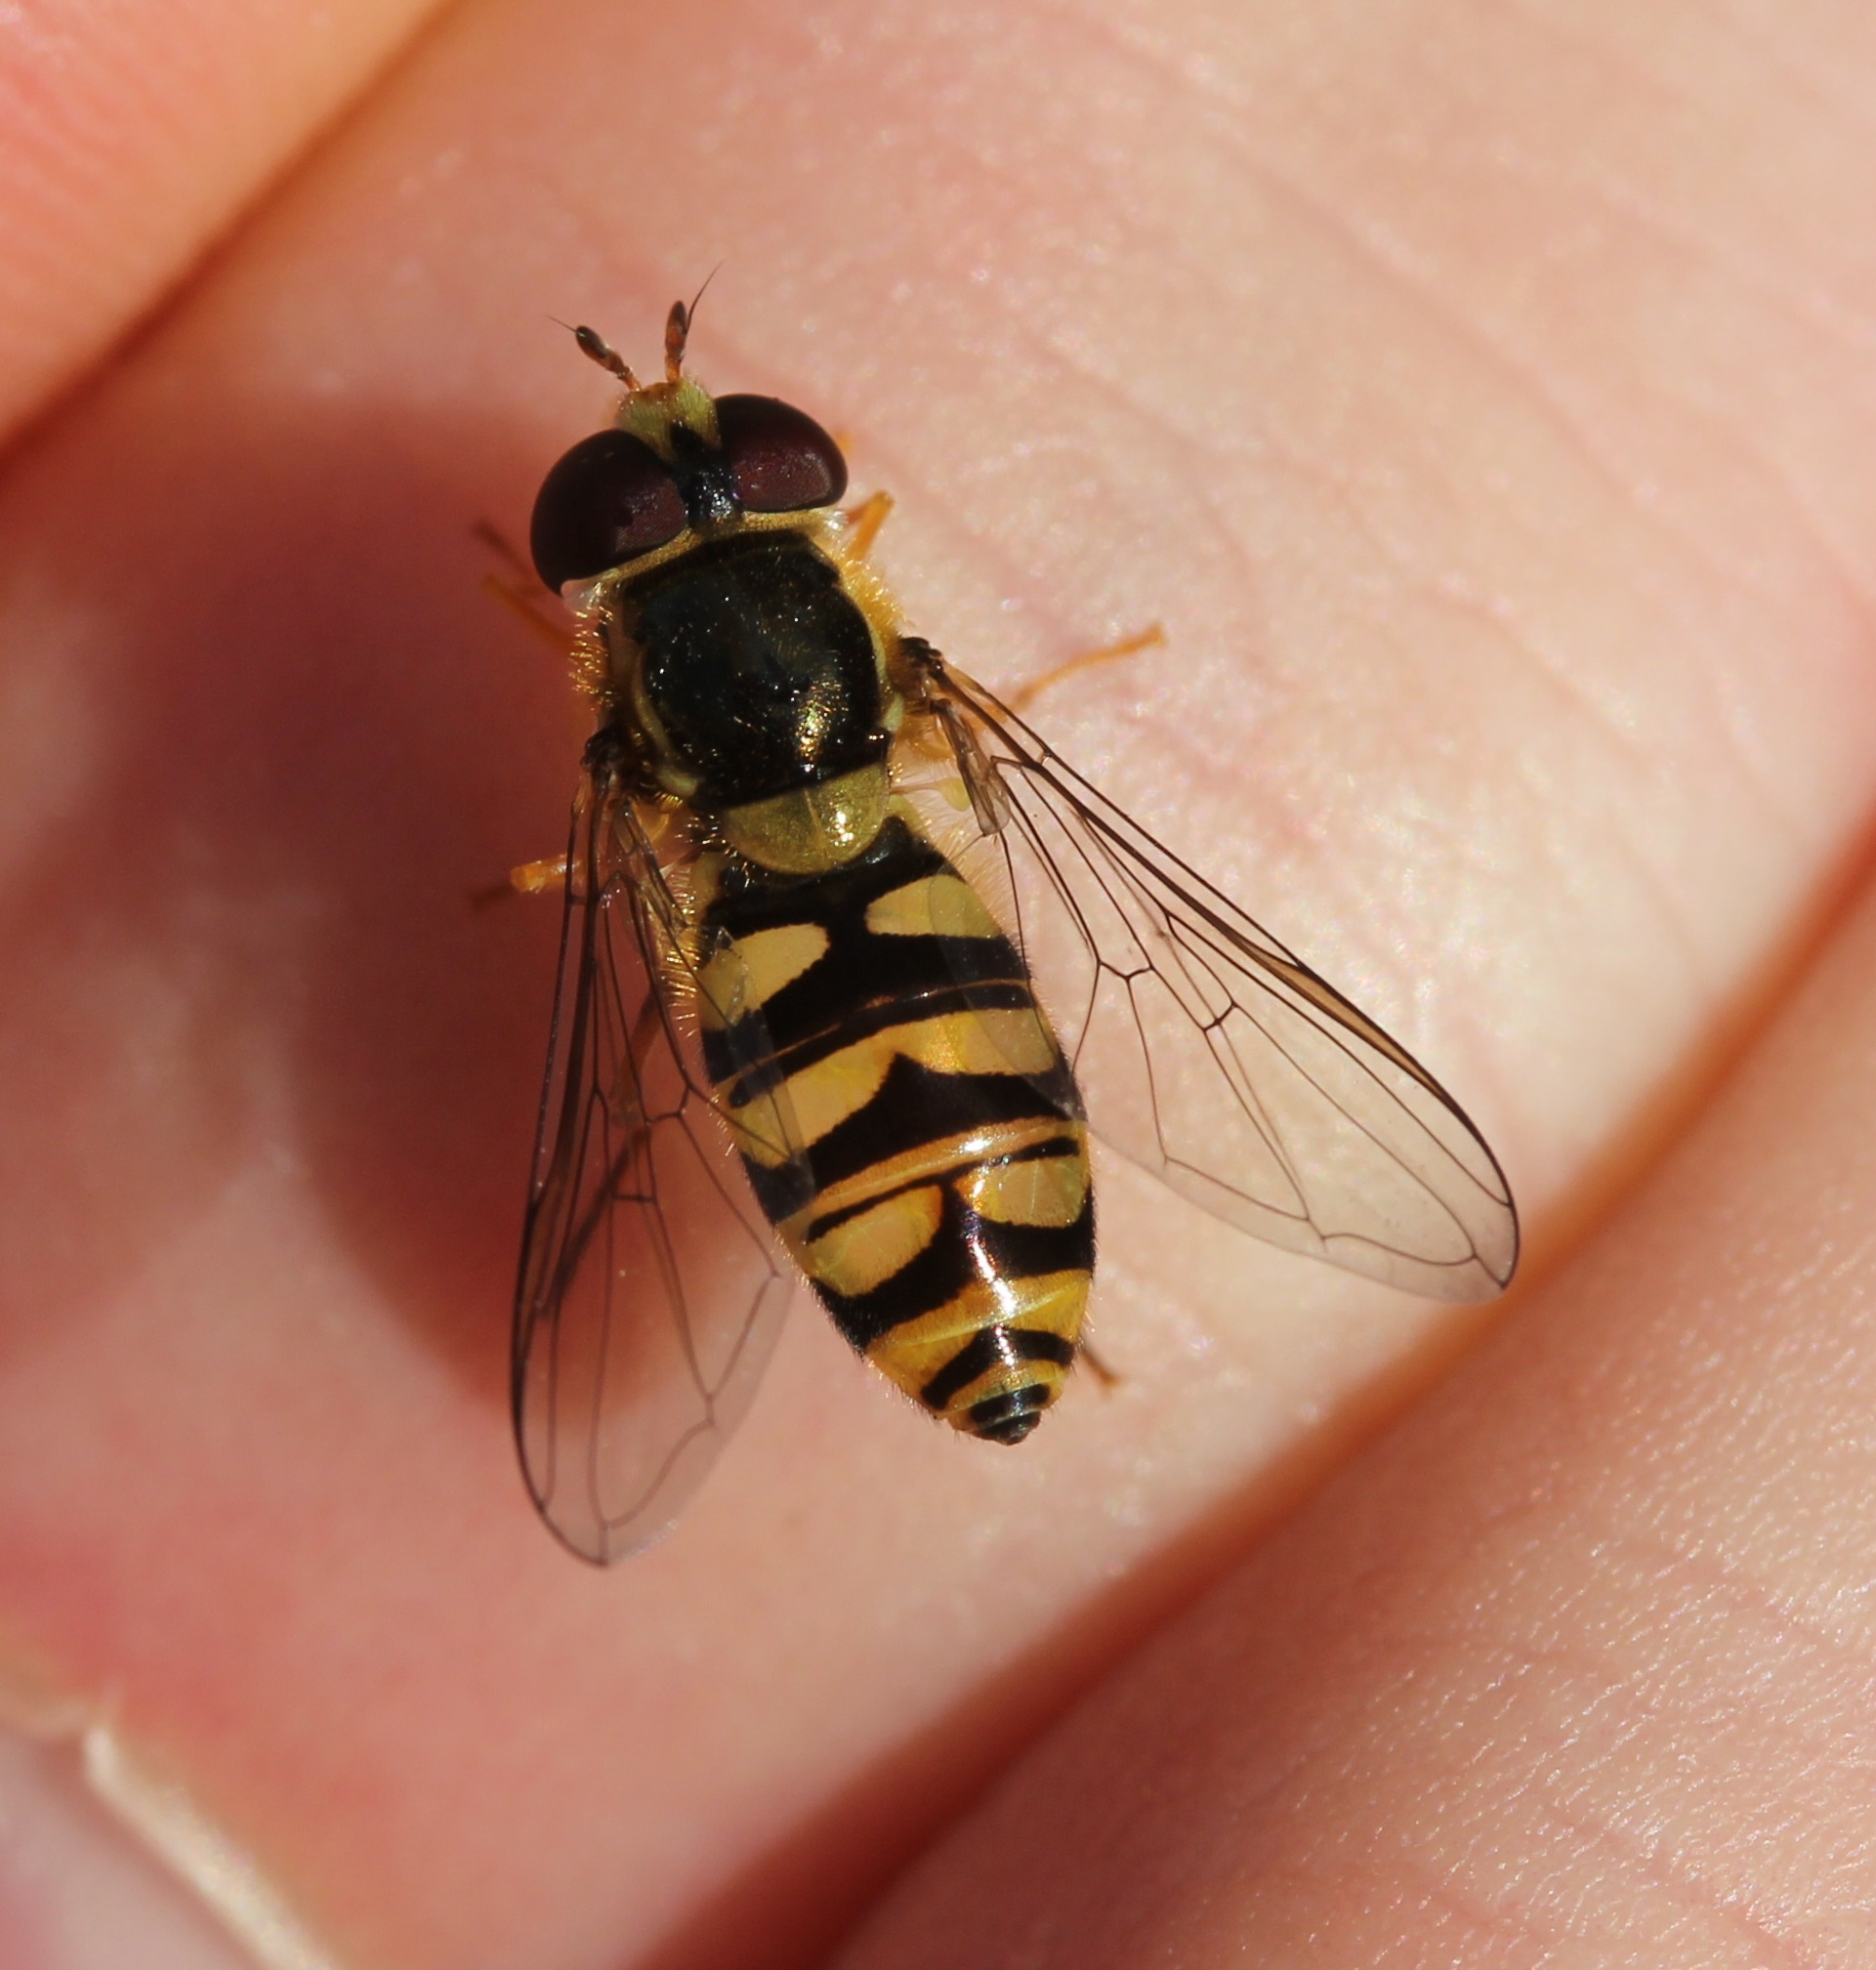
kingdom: Animalia
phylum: Arthropoda
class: Insecta
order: Diptera
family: Syrphidae
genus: Epistrophella
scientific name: Epistrophella emarginata
